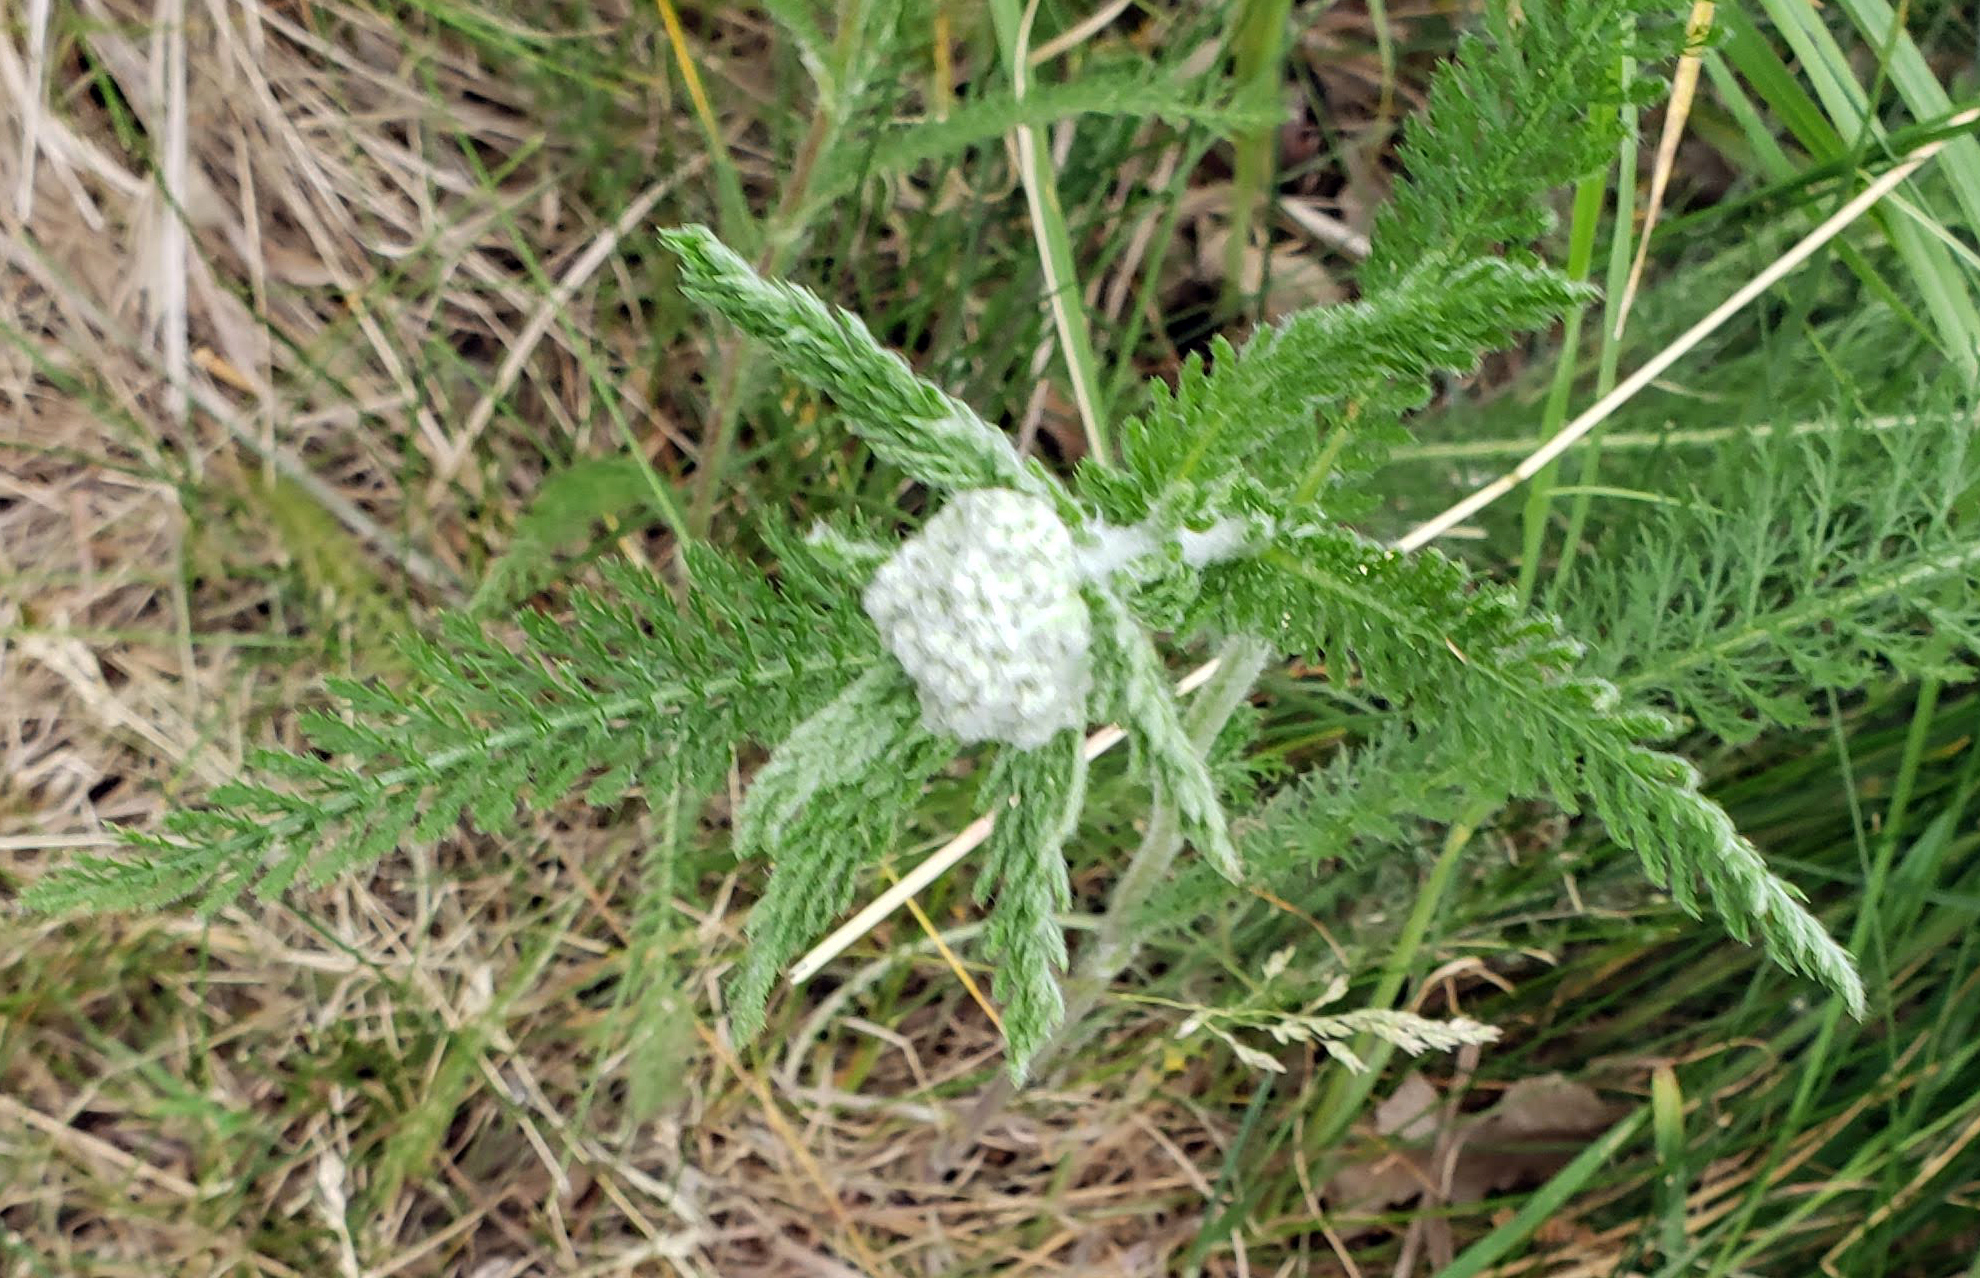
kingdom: Plantae
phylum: Tracheophyta
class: Magnoliopsida
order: Asterales
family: Asteraceae
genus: Achillea
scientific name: Achillea millefolium
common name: Yarrow
